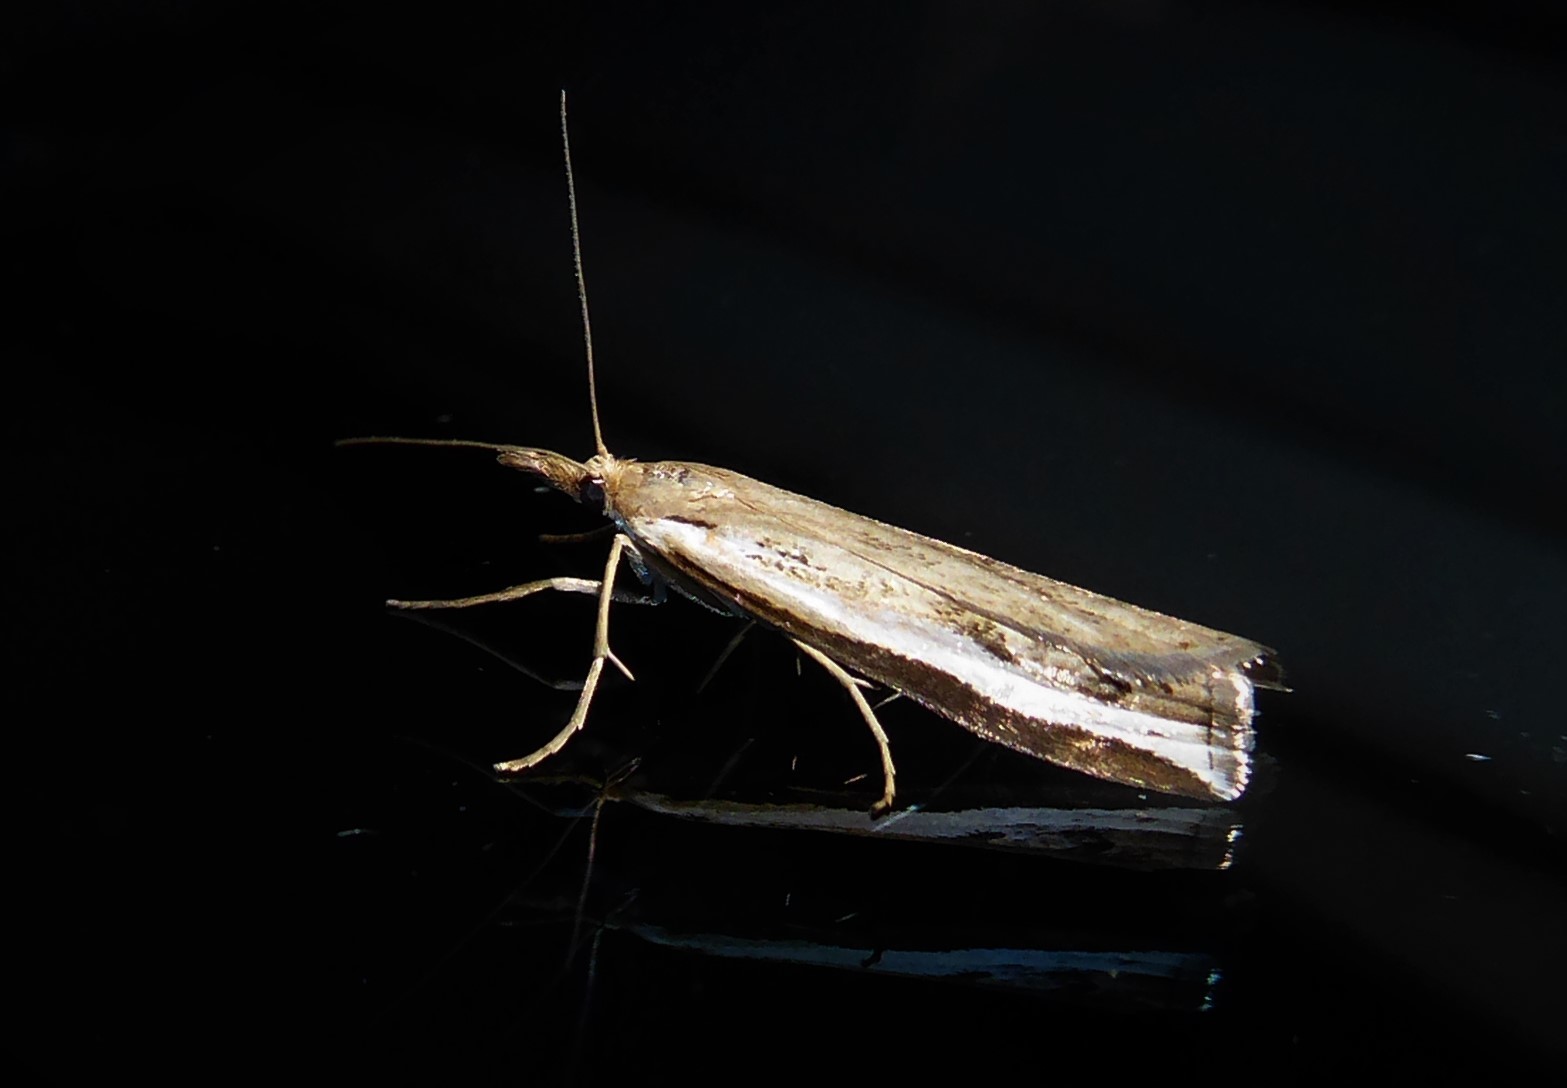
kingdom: Animalia
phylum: Arthropoda
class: Insecta
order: Lepidoptera
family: Crambidae
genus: Orocrambus
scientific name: Orocrambus flexuosellus
